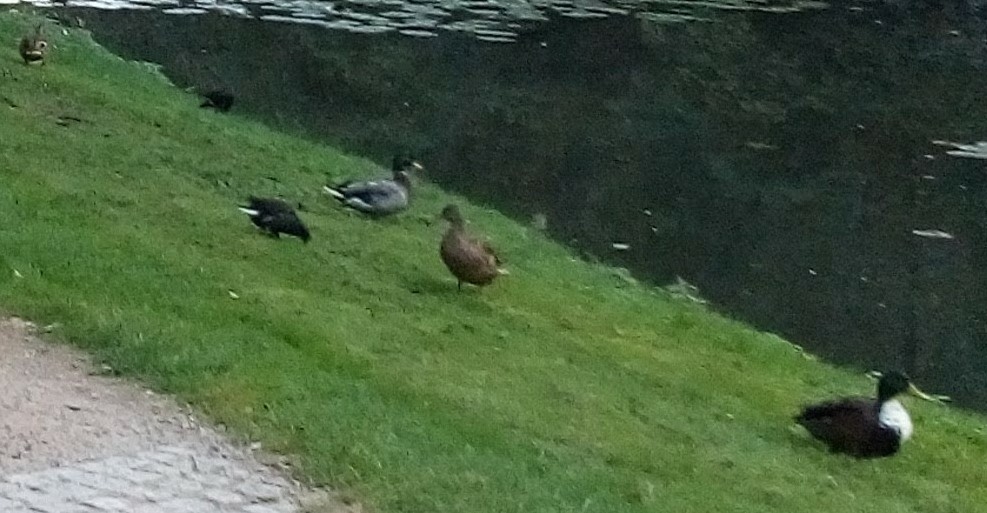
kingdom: Animalia
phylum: Chordata
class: Aves
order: Anseriformes
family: Anatidae
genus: Anas
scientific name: Anas platyrhynchos
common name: Mallard
